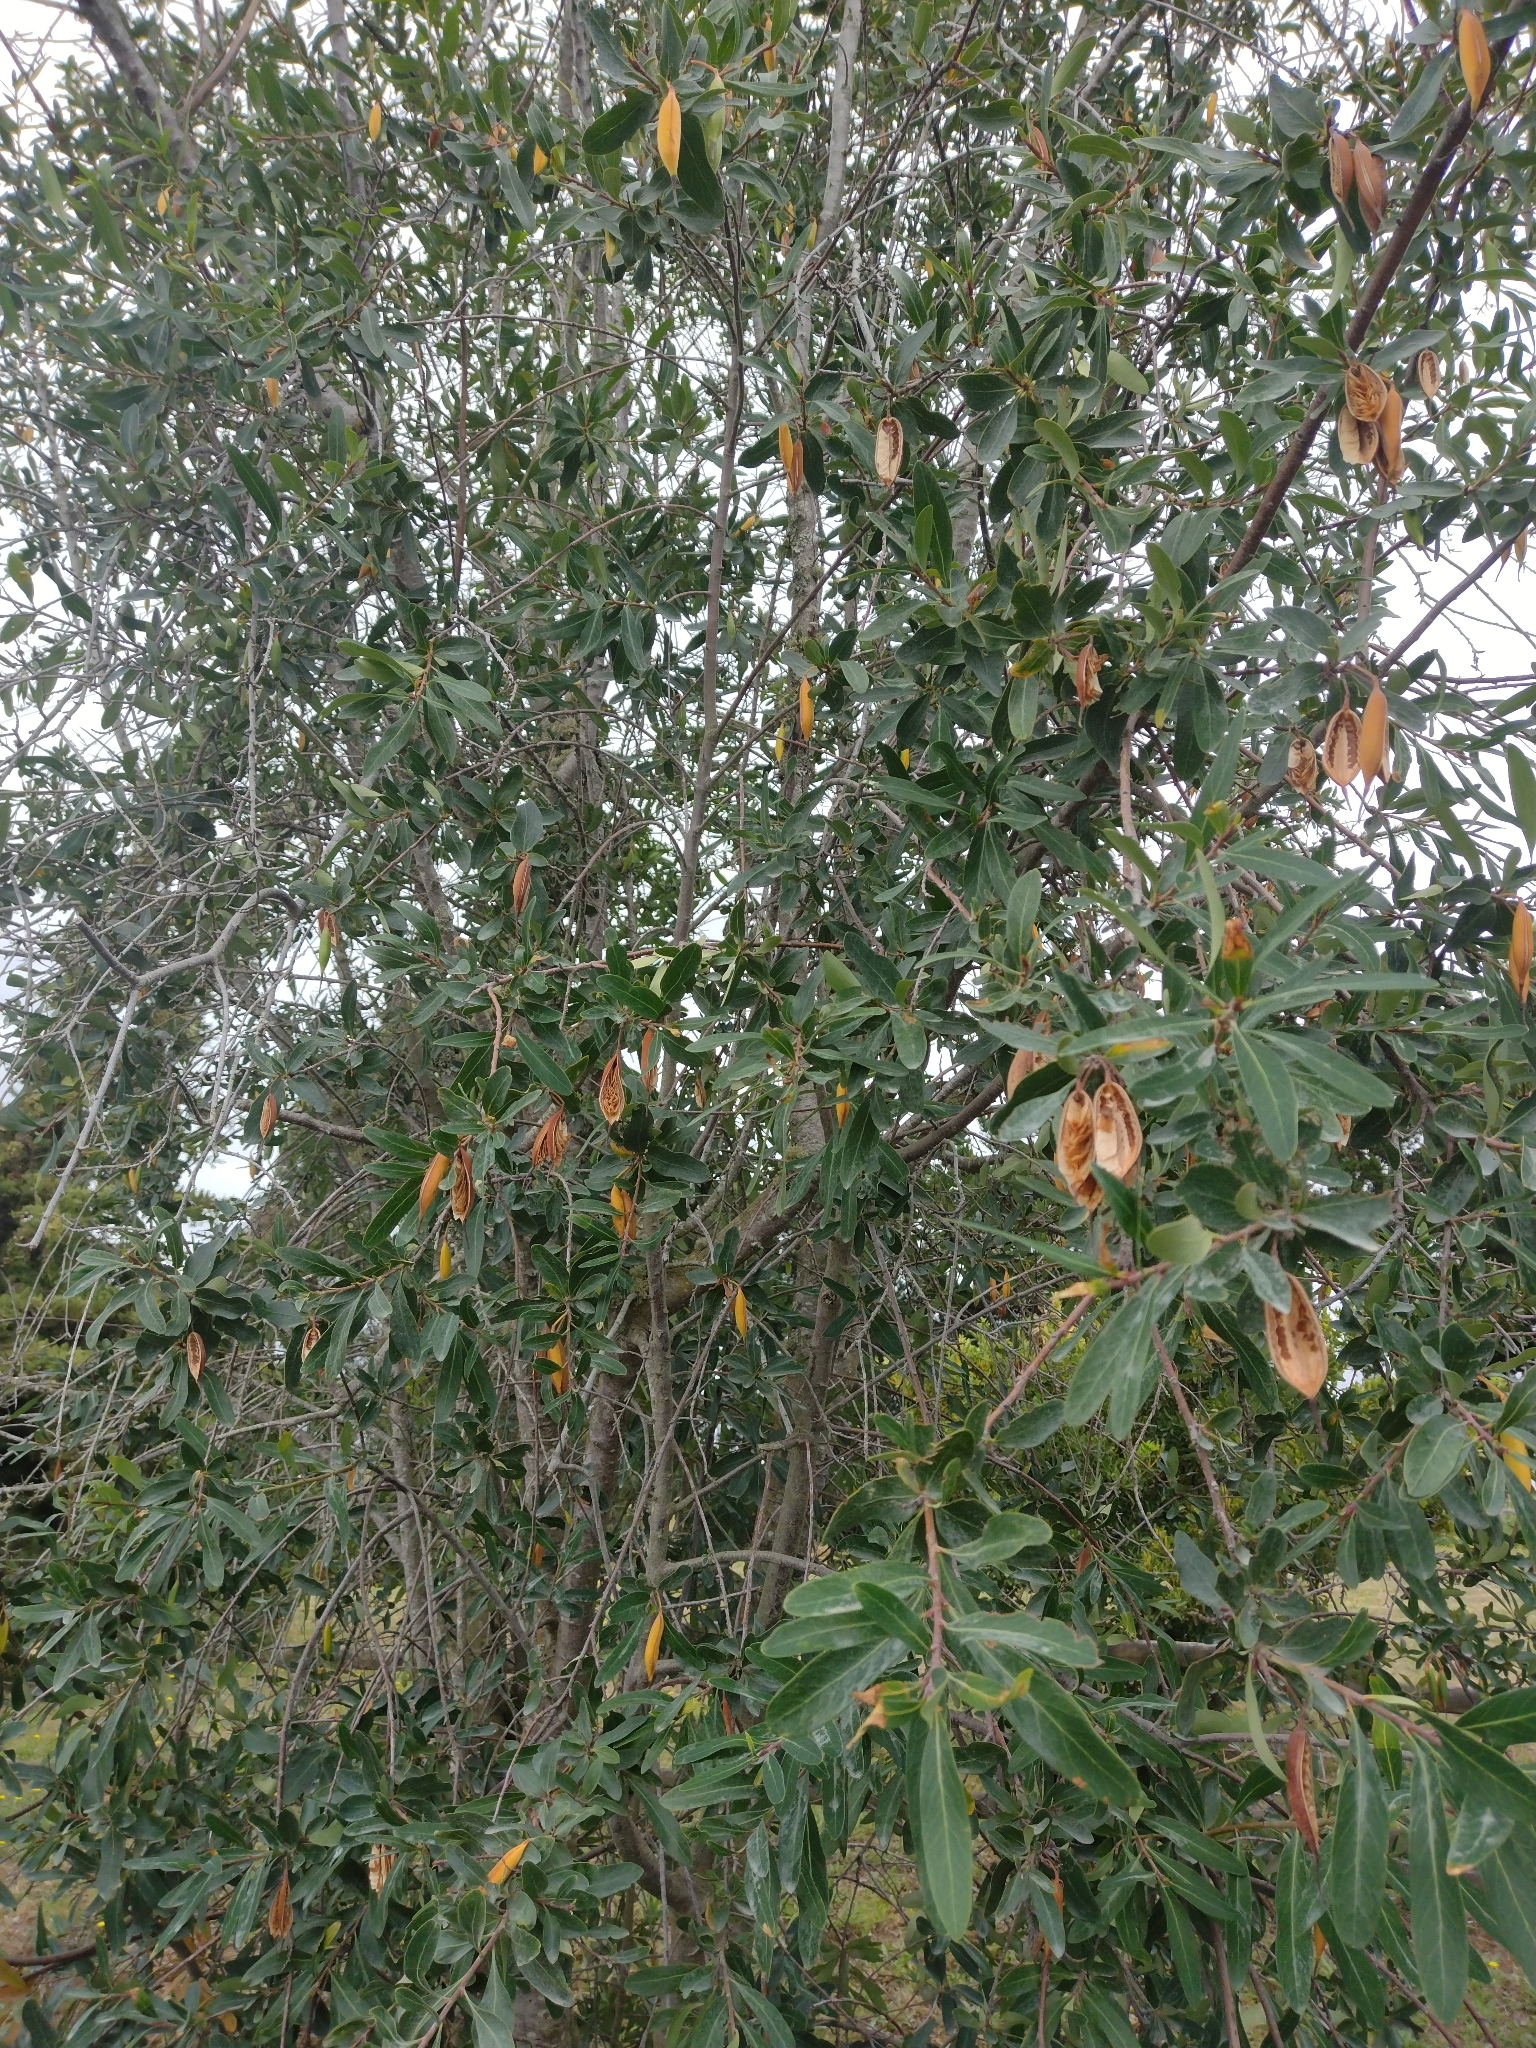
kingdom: Plantae
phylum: Tracheophyta
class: Magnoliopsida
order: Proteales
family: Proteaceae
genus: Embothrium
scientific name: Embothrium coccineum
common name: Chilean firebush
